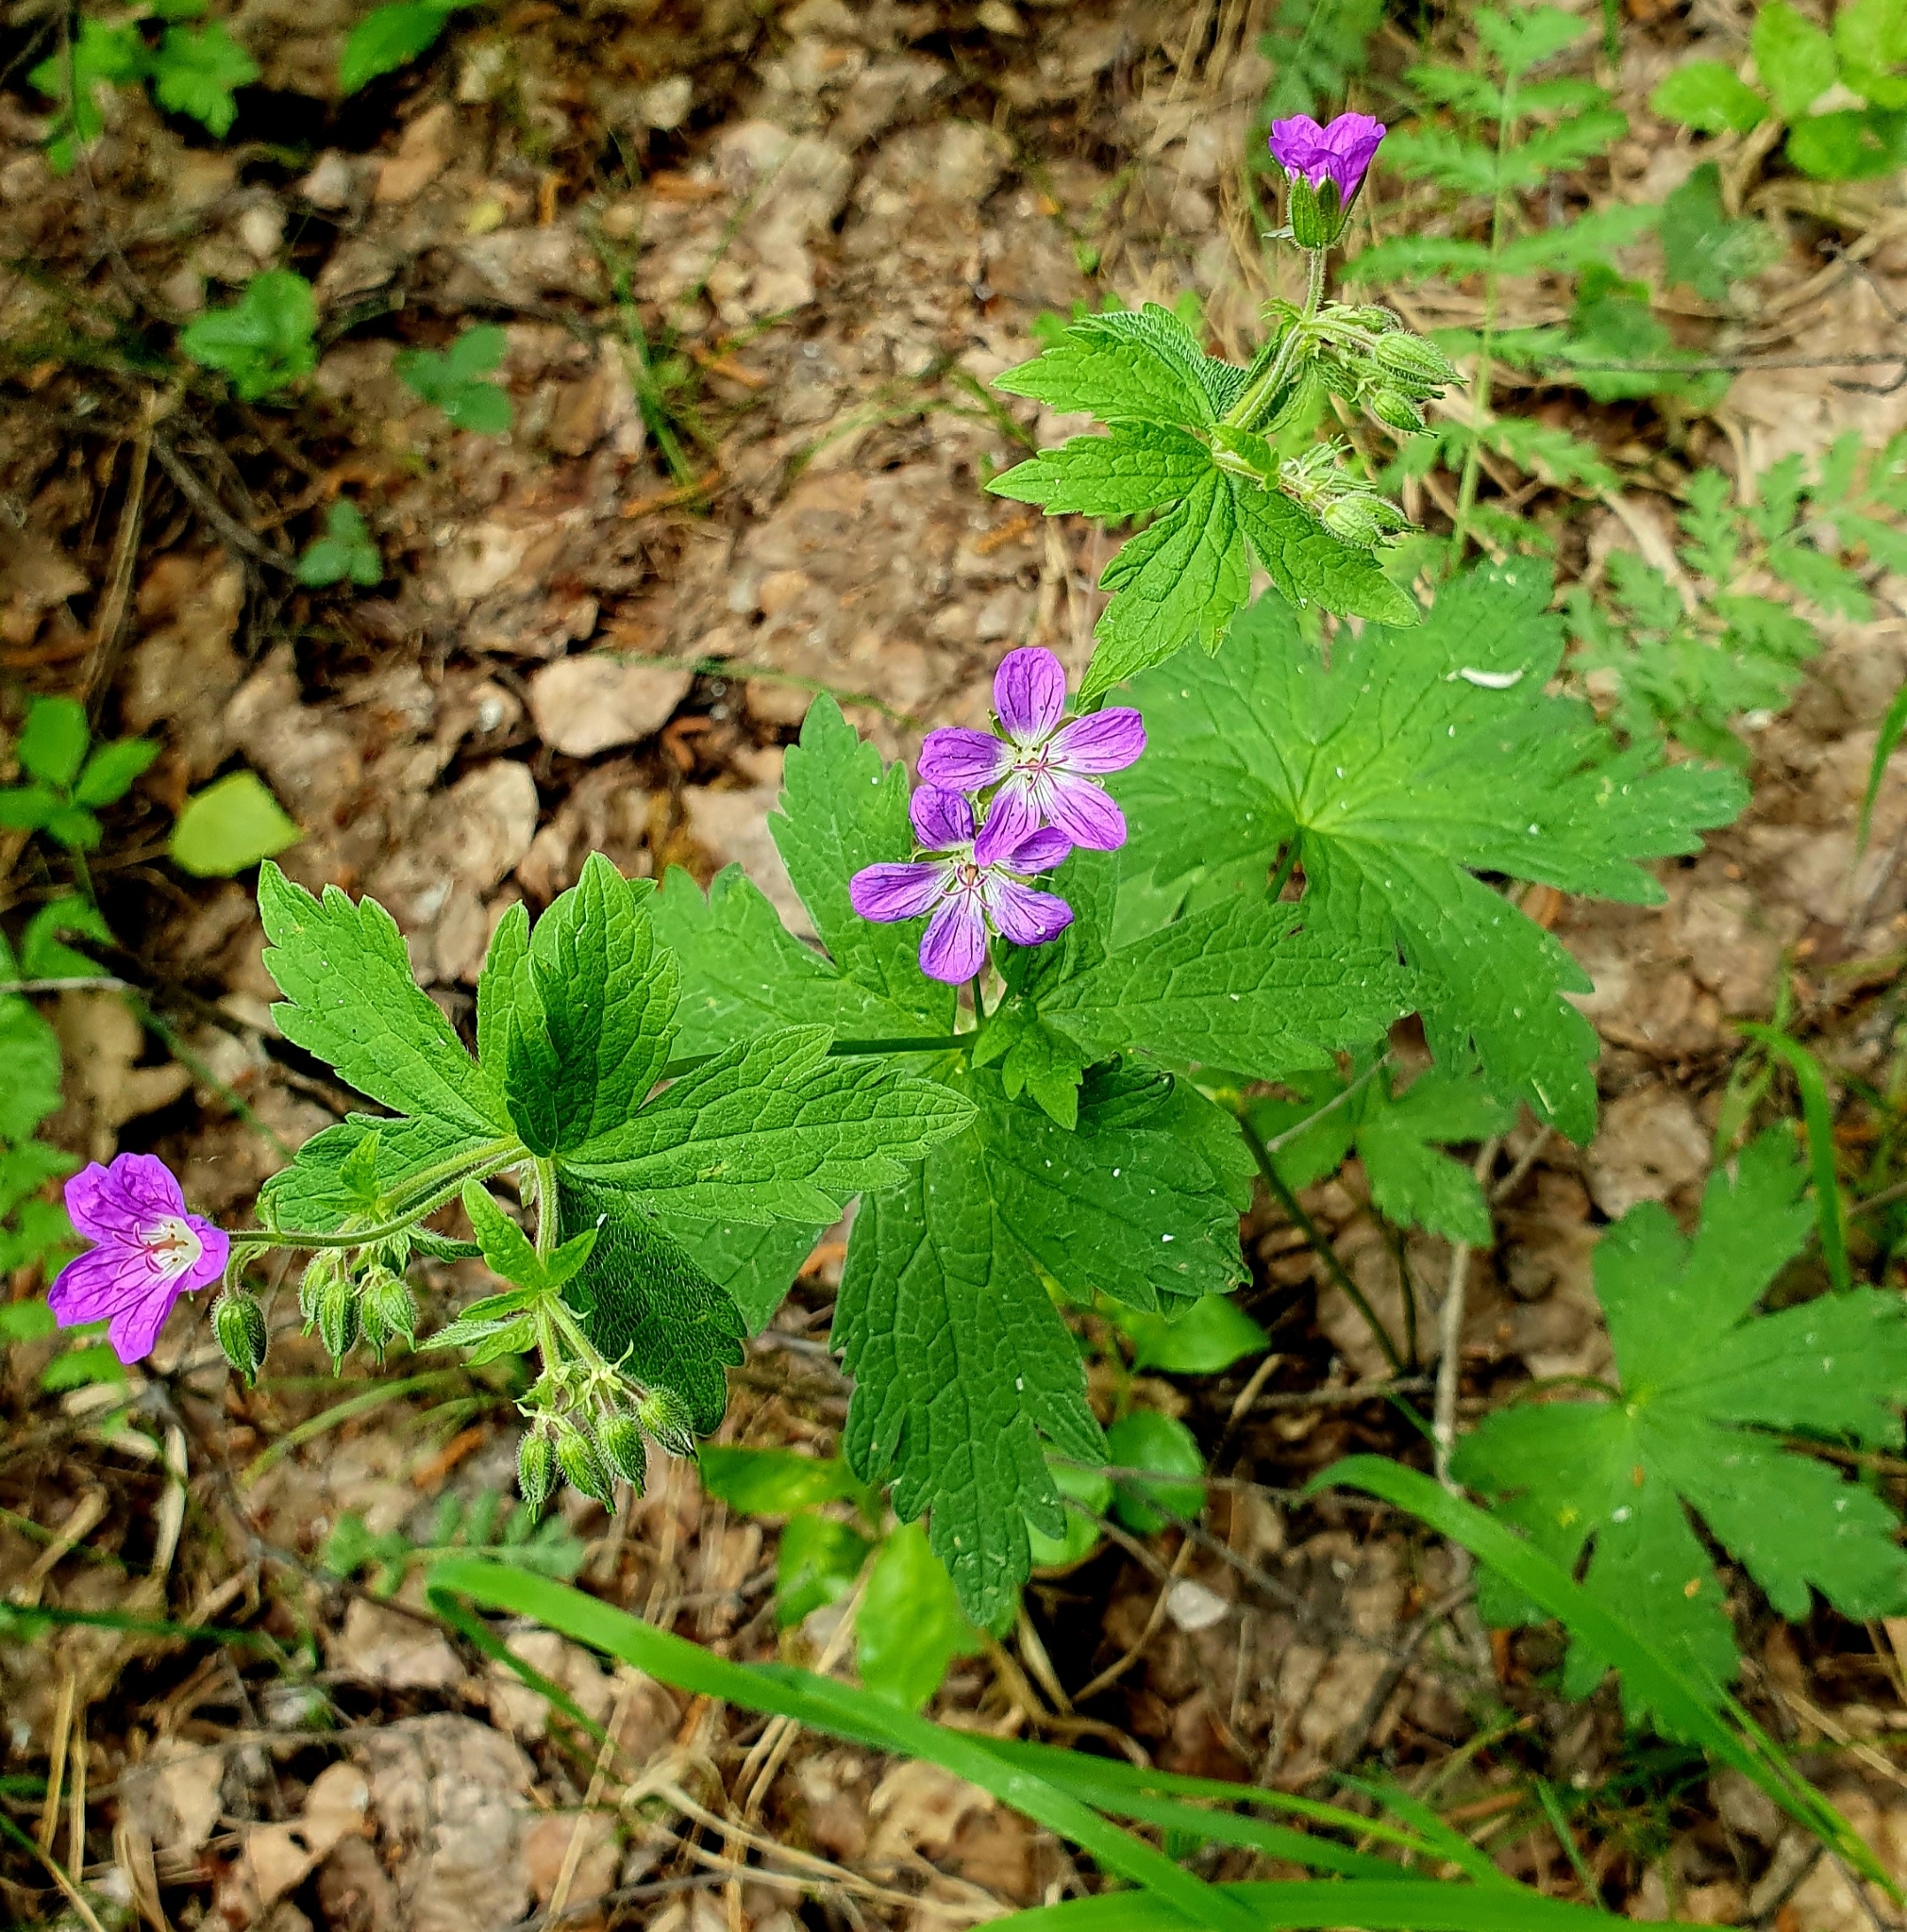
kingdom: Plantae
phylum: Tracheophyta
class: Magnoliopsida
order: Geraniales
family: Geraniaceae
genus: Geranium
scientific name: Geranium sylvaticum
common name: Wood crane's-bill
